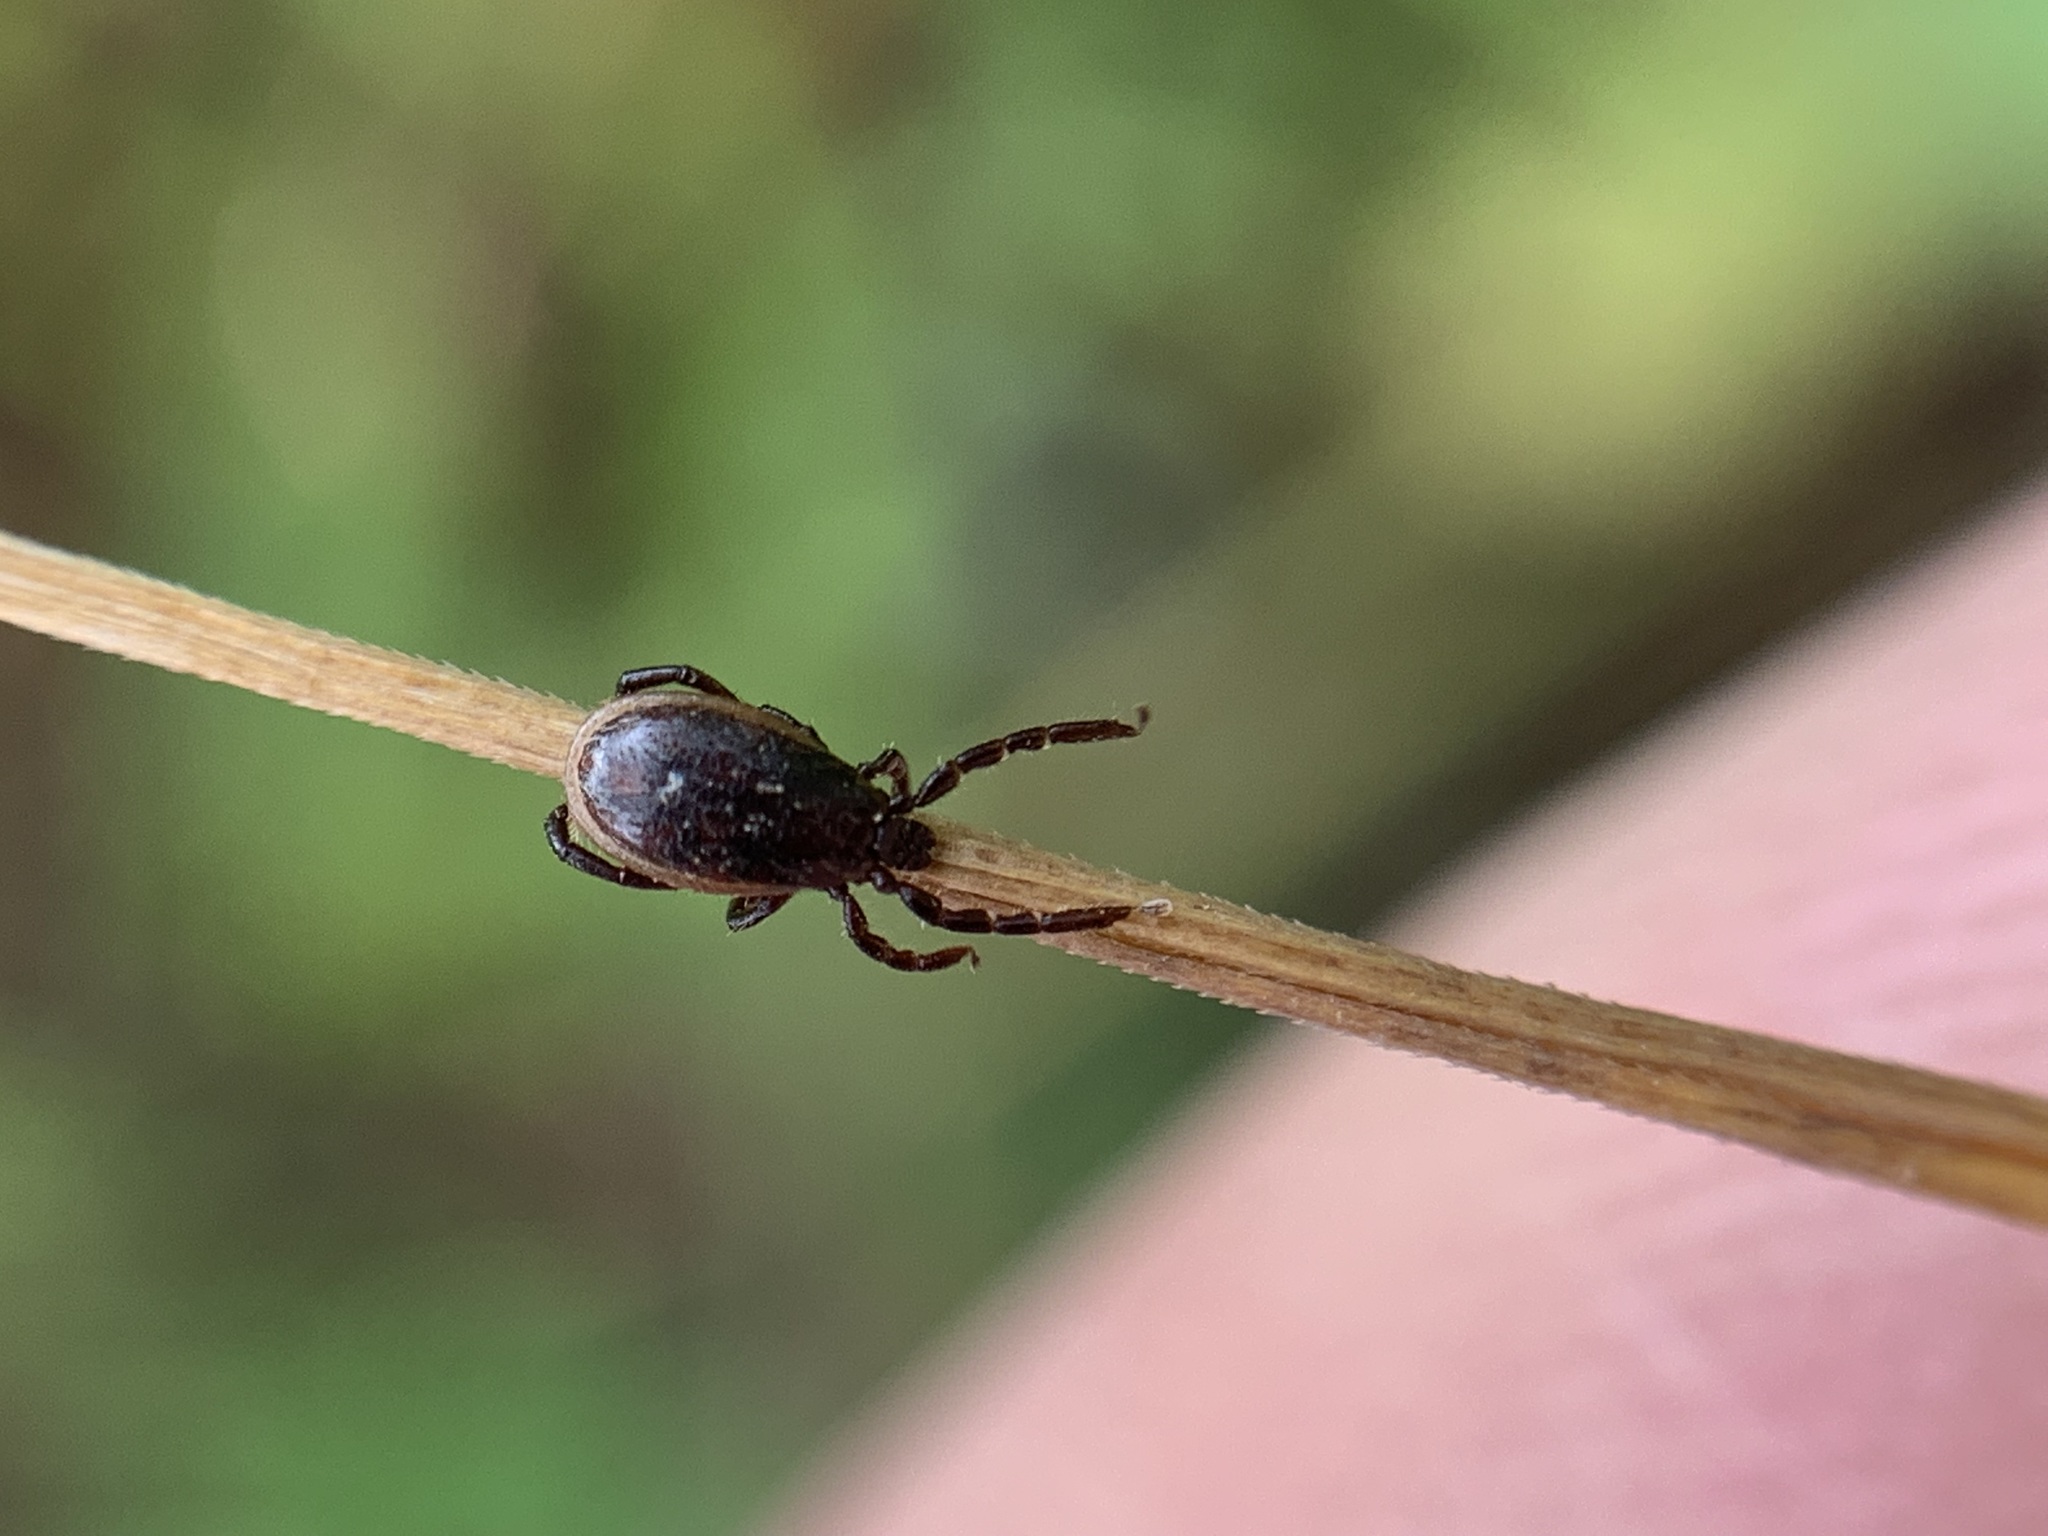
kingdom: Animalia
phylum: Arthropoda
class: Arachnida
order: Ixodida
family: Ixodidae
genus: Ixodes
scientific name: Ixodes pacificus
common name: California black-legged tick
